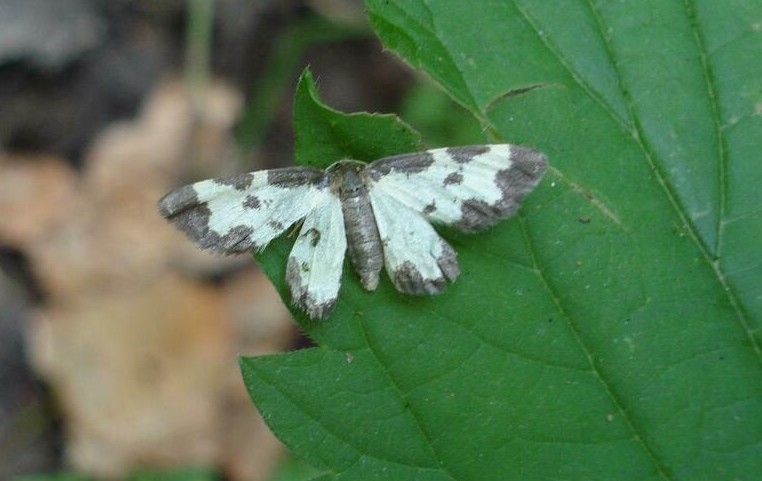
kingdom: Animalia
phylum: Arthropoda
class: Insecta
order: Lepidoptera
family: Geometridae
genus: Lomaspilis
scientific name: Lomaspilis marginata
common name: Clouded border
